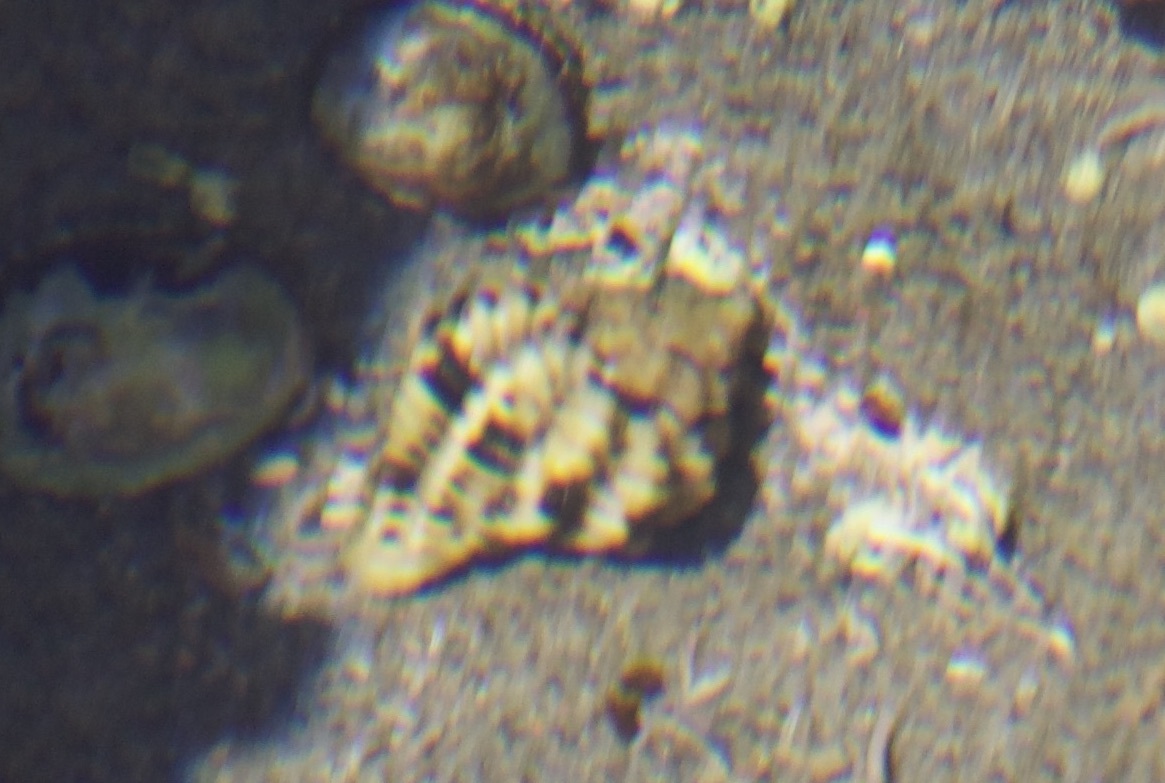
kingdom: Animalia
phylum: Mollusca
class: Gastropoda
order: Neogastropoda
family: Muricidae
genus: Paciocinebrina
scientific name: Paciocinebrina circumtexta
